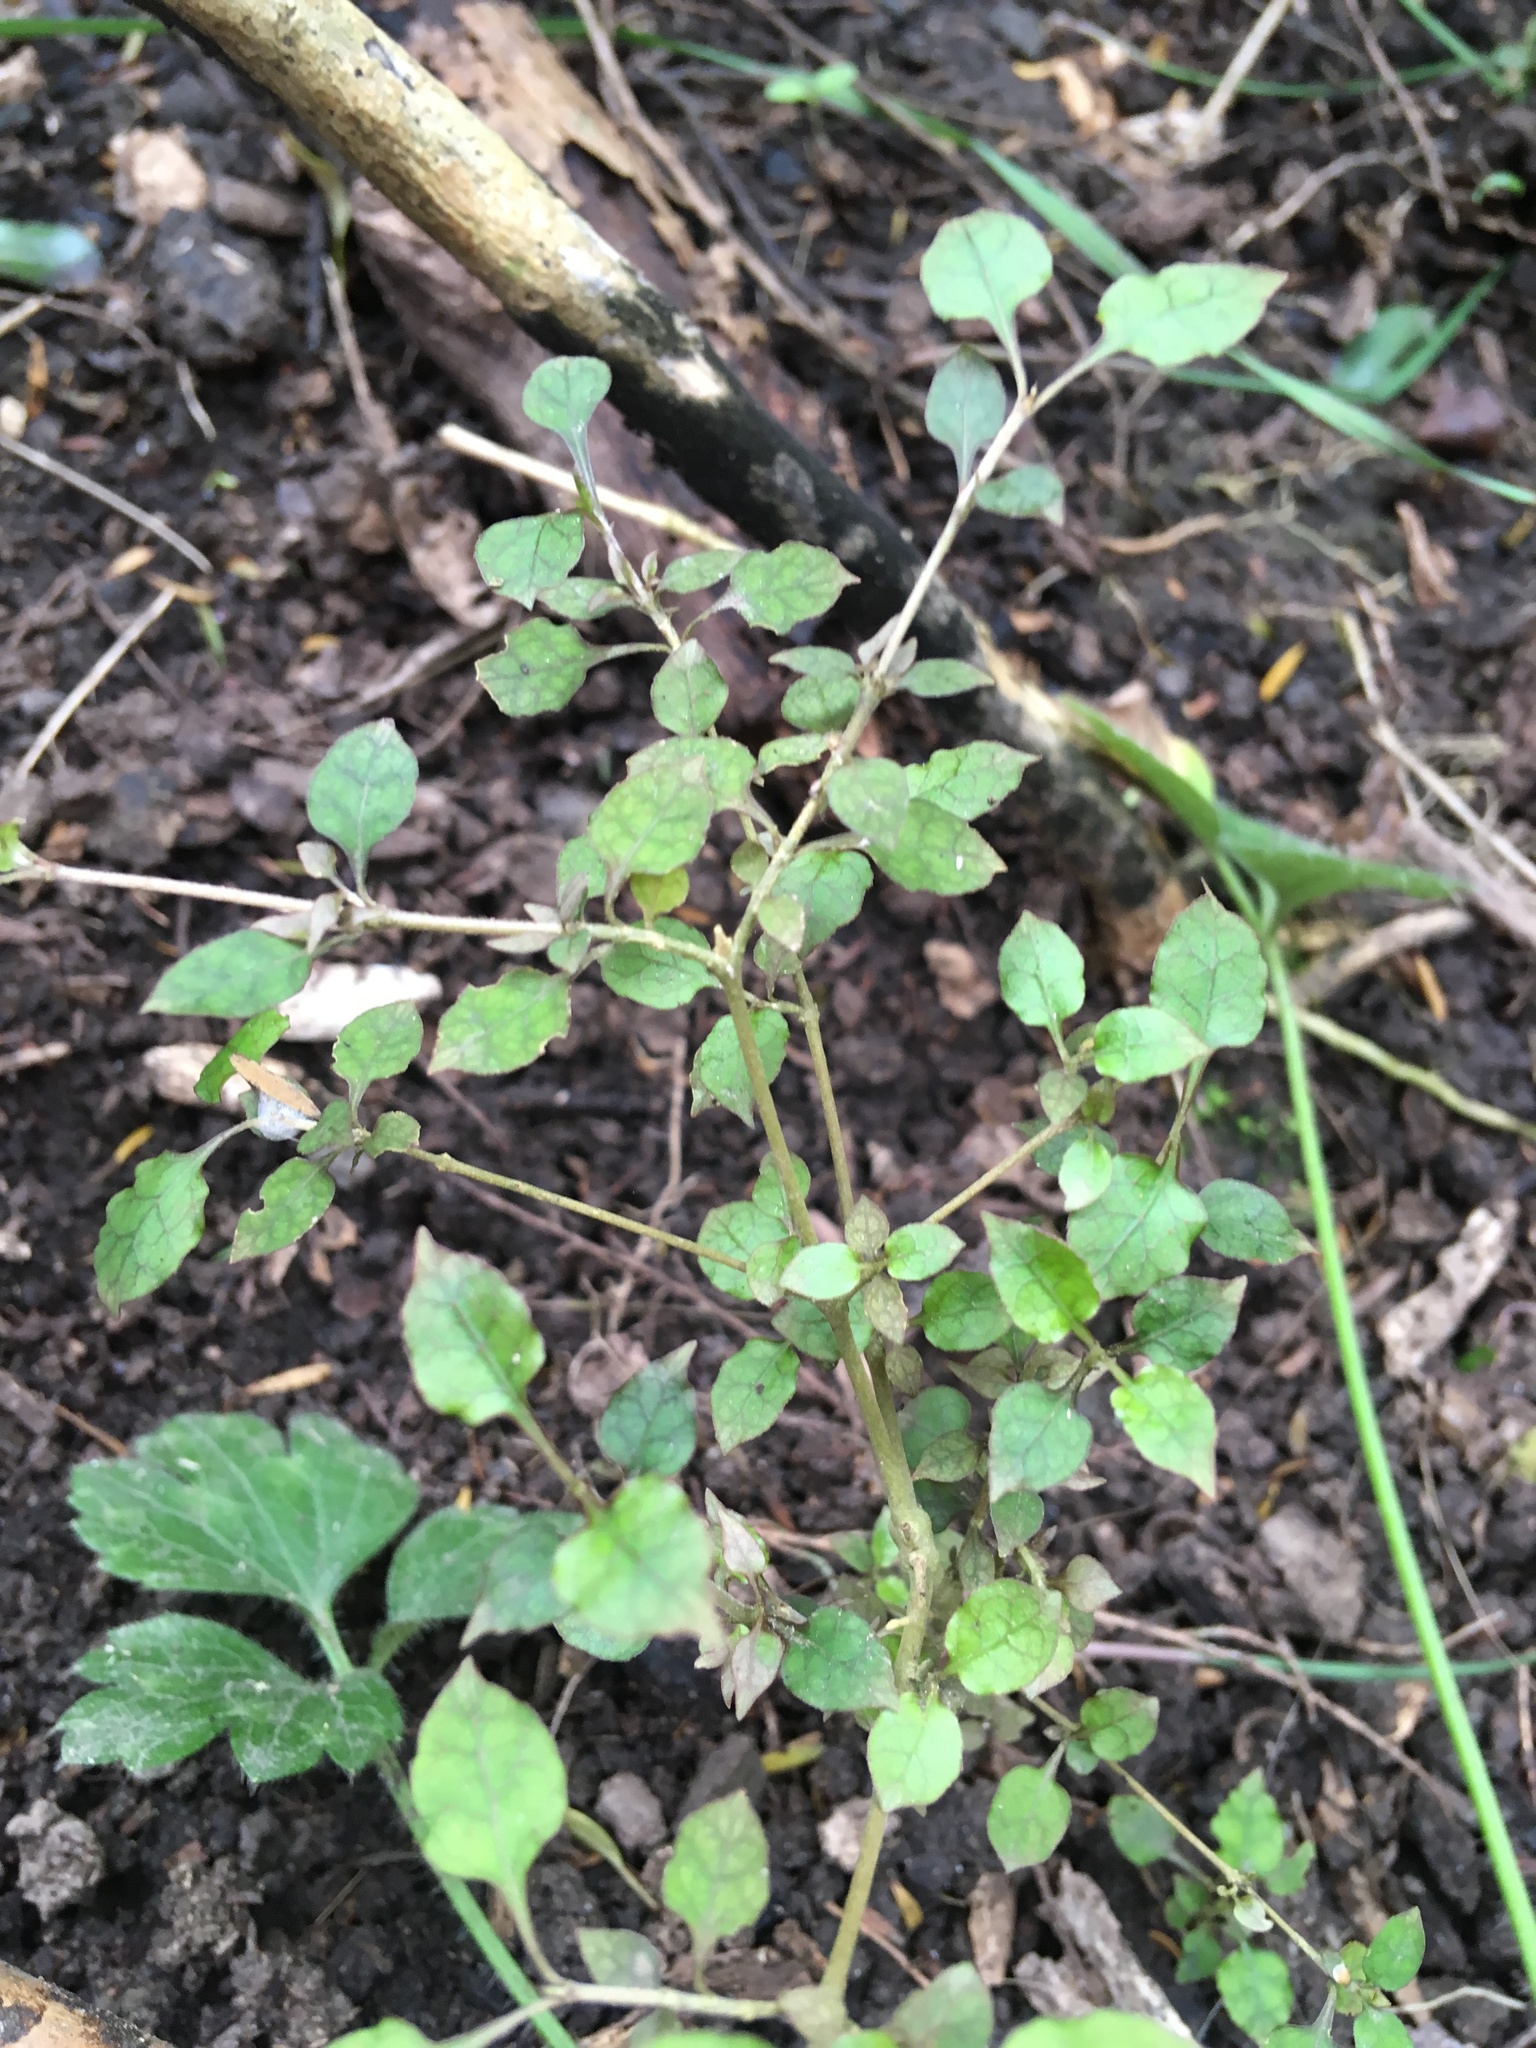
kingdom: Plantae
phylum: Tracheophyta
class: Magnoliopsida
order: Gentianales
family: Rubiaceae
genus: Coprosma
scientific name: Coprosma areolata
